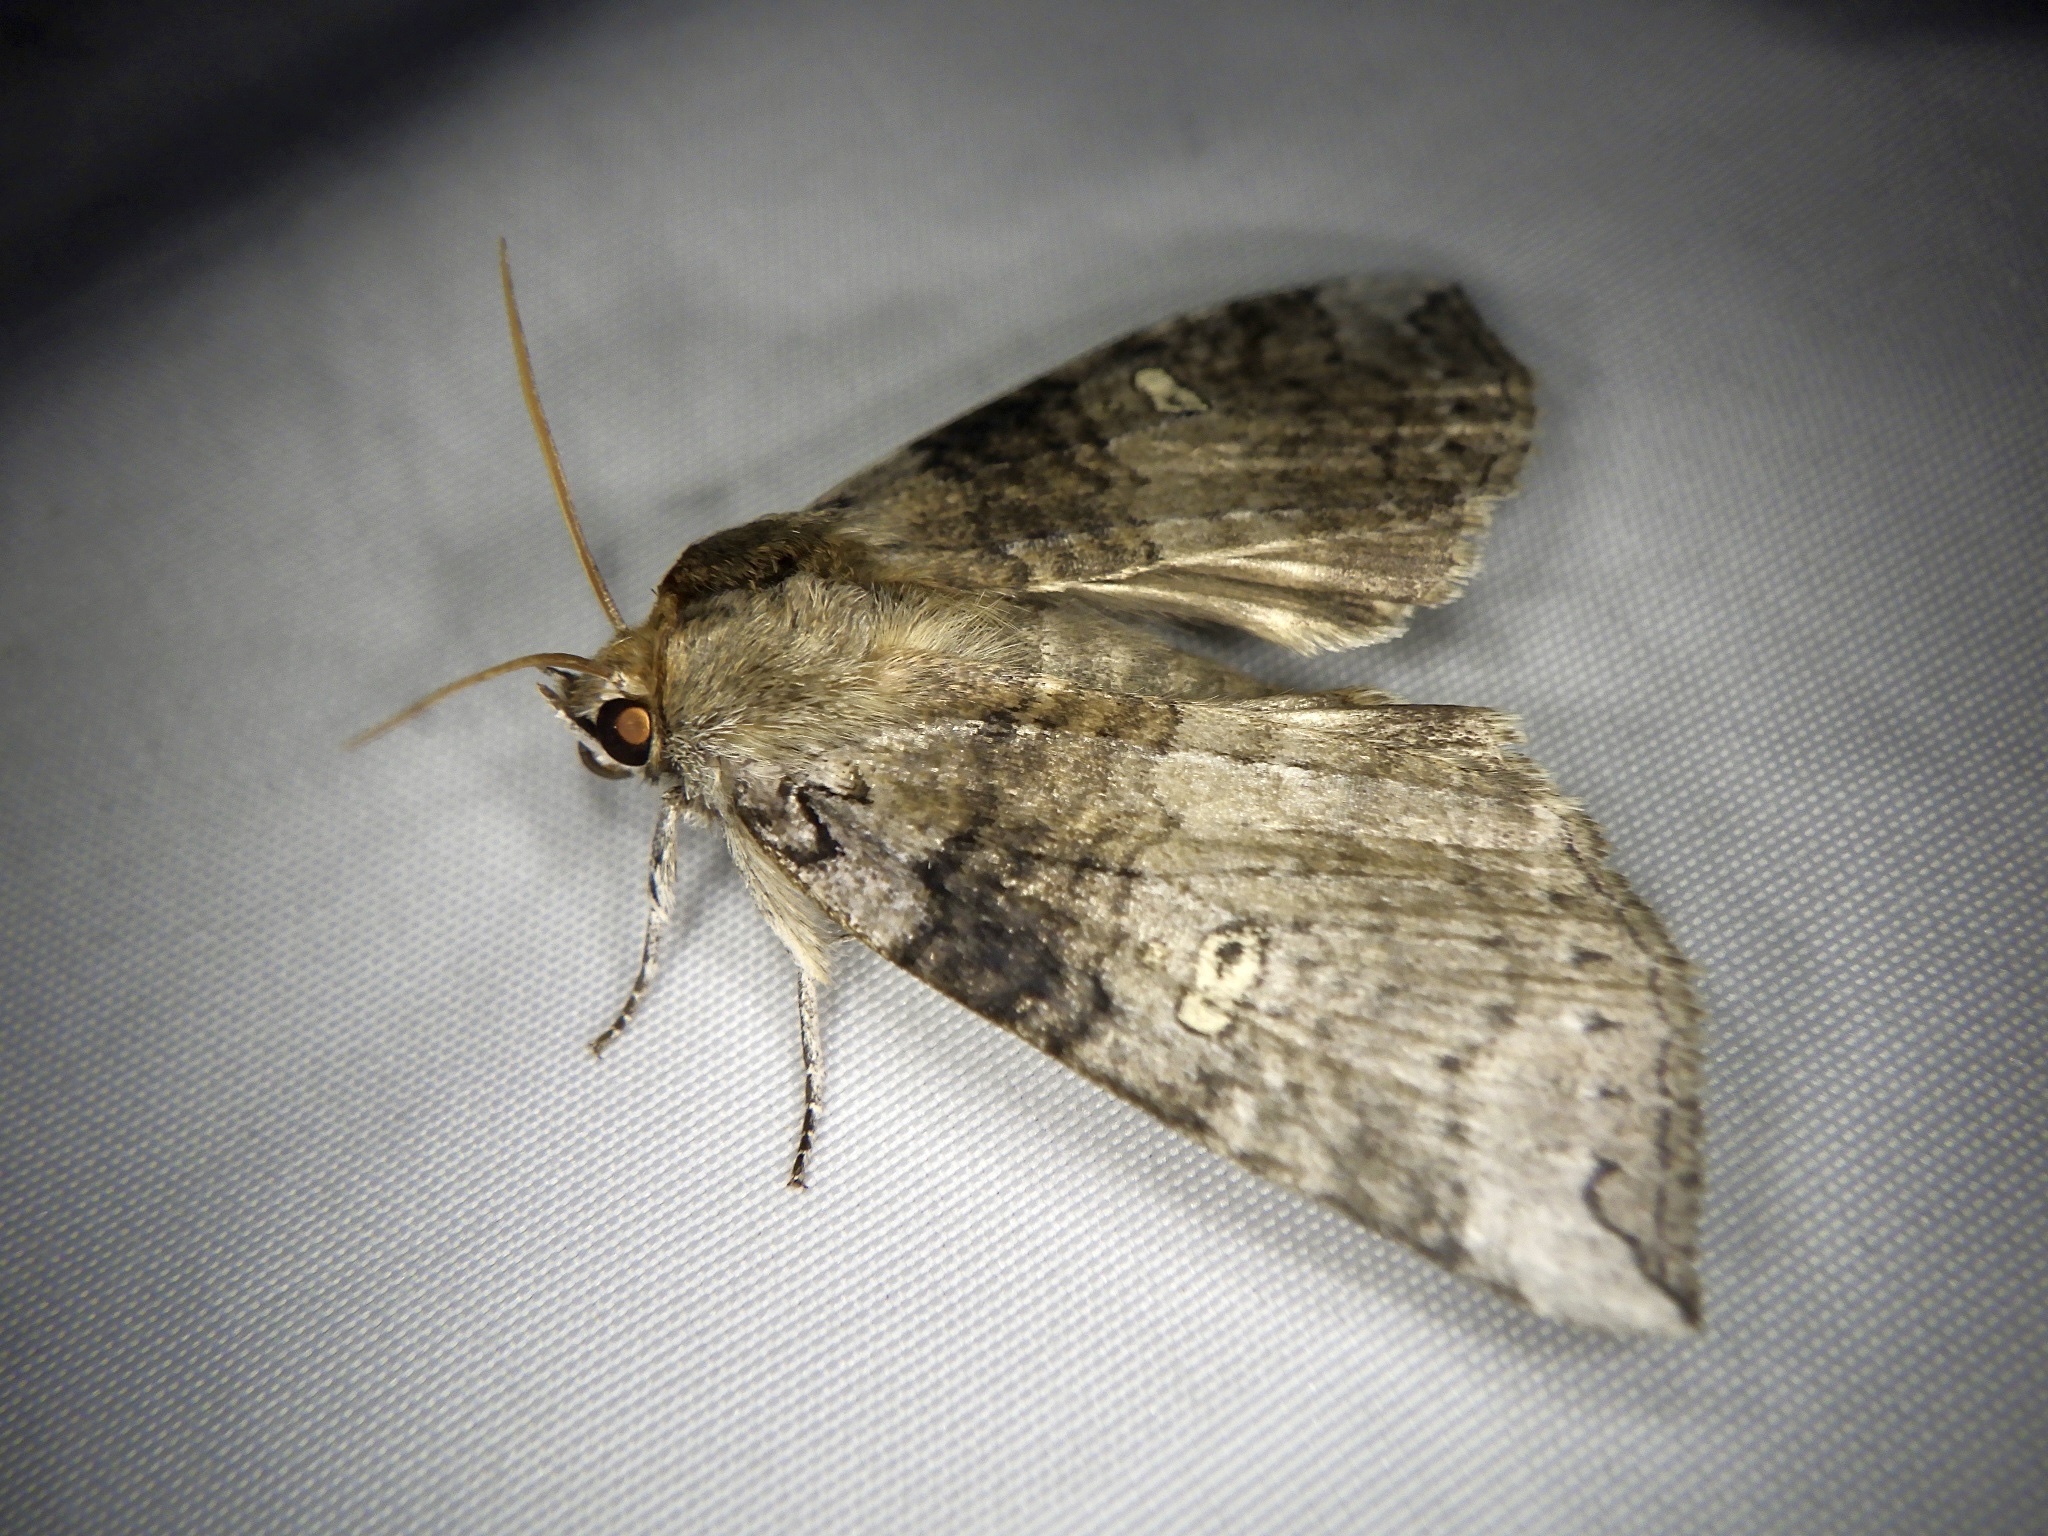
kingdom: Animalia
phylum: Arthropoda
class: Insecta
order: Lepidoptera
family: Drepanidae
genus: Tethea
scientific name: Tethea ampliata
